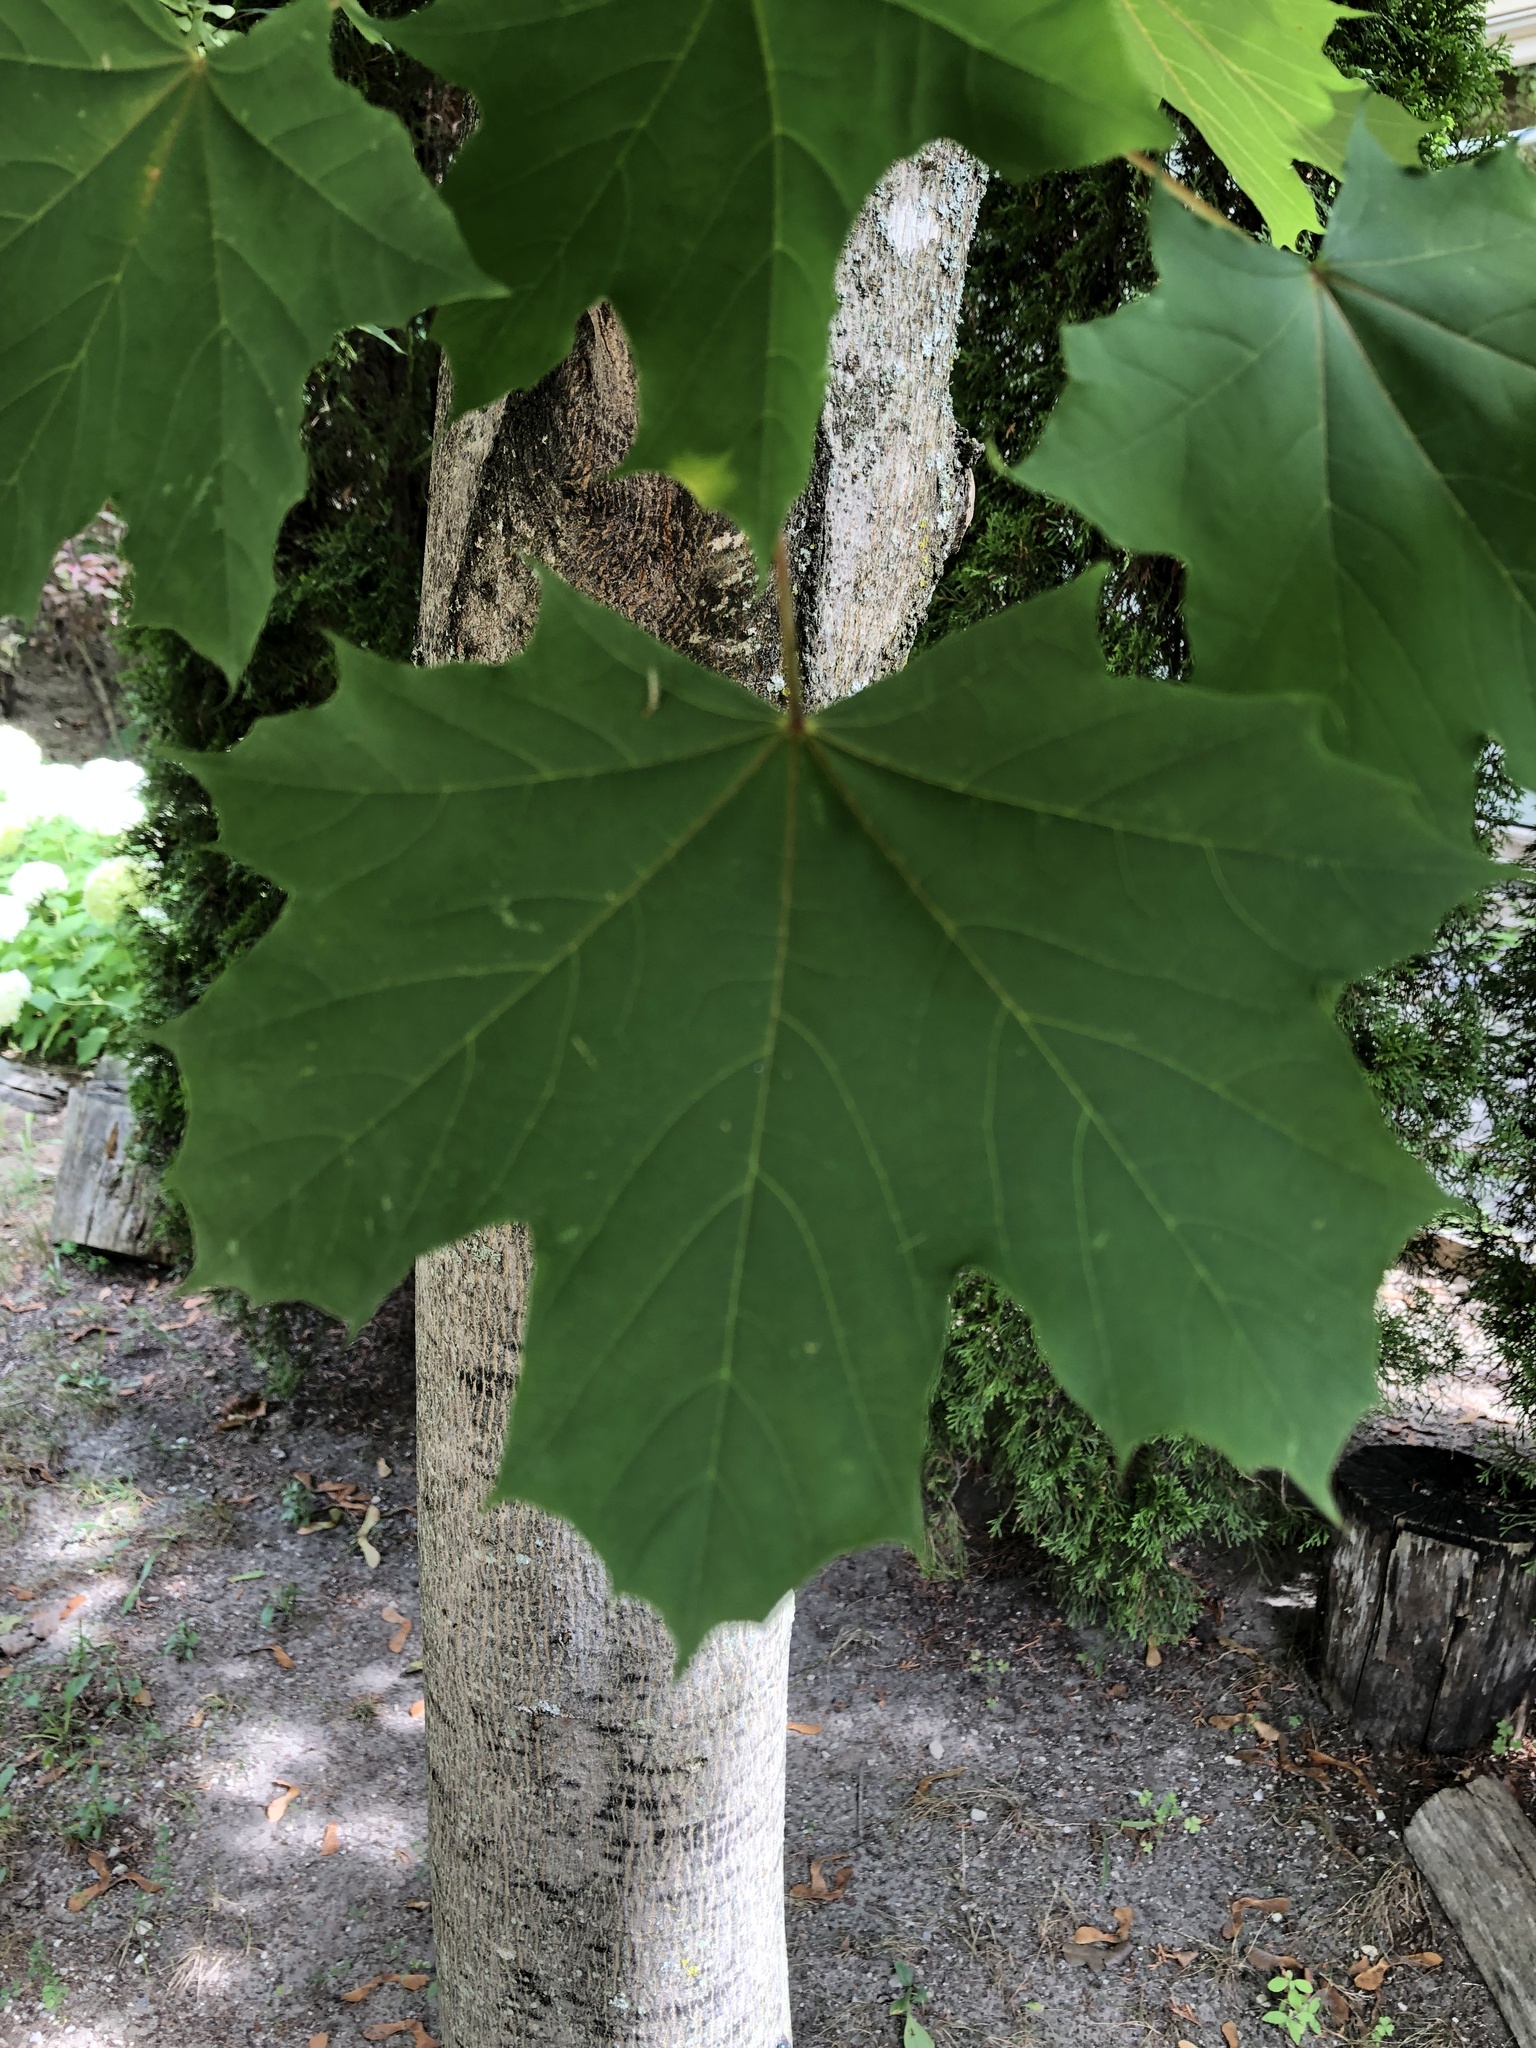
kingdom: Plantae
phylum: Tracheophyta
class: Magnoliopsida
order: Sapindales
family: Sapindaceae
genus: Acer
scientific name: Acer platanoides
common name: Norway maple
